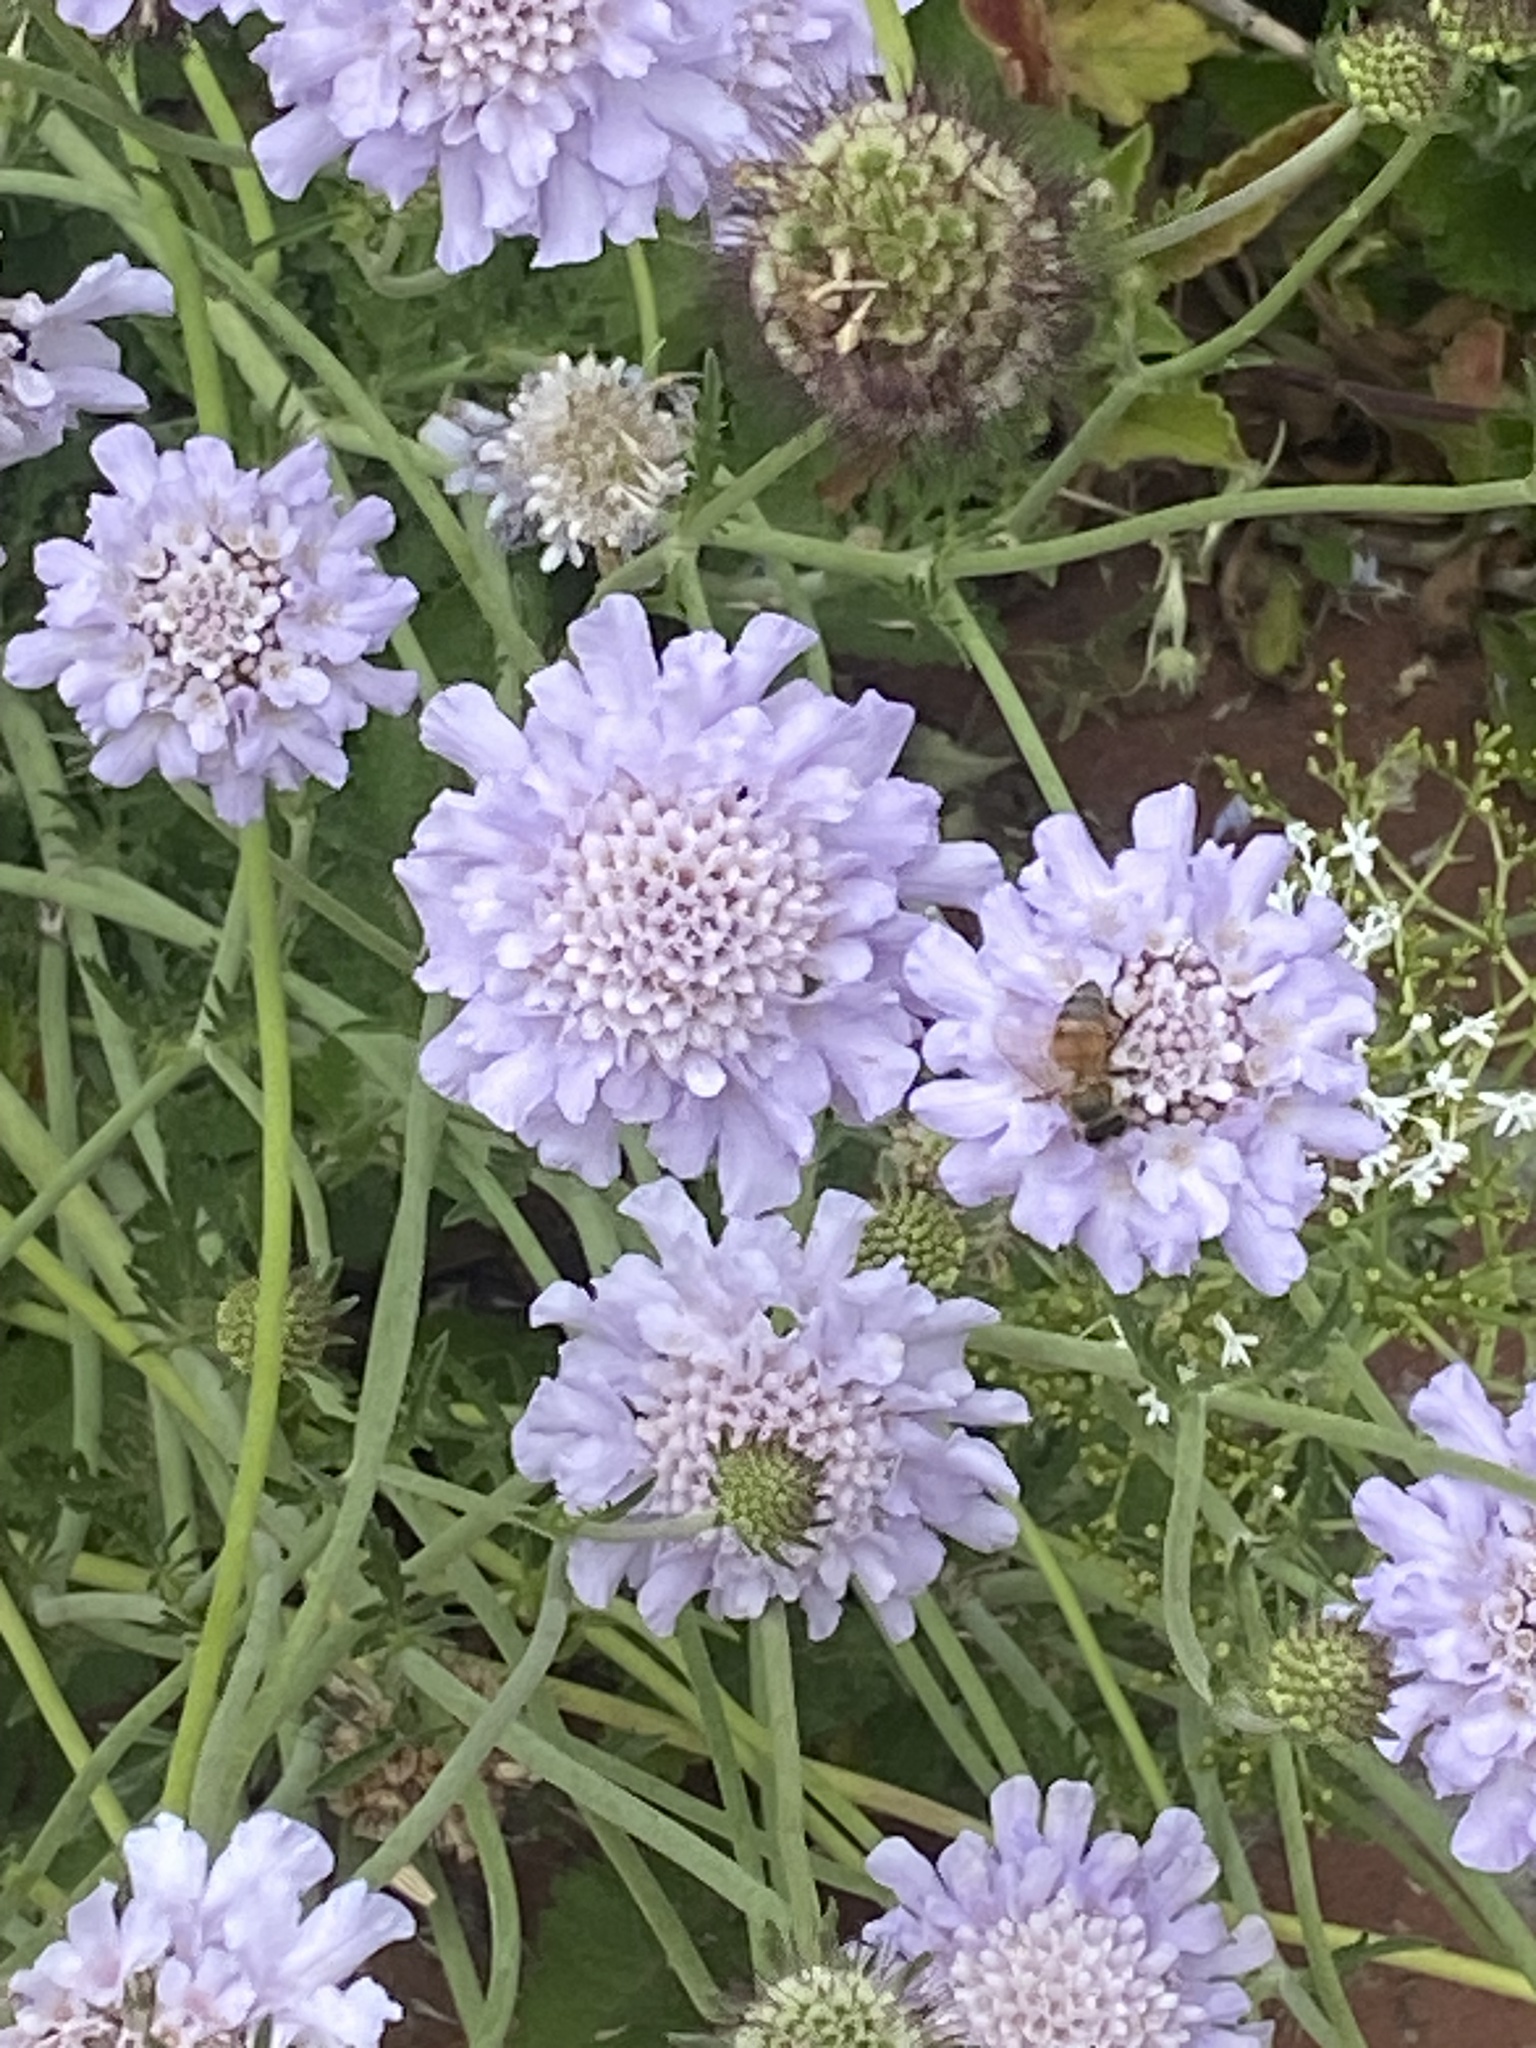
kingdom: Animalia
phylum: Arthropoda
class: Insecta
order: Hymenoptera
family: Apidae
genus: Apis
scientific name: Apis mellifera
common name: Honey bee
